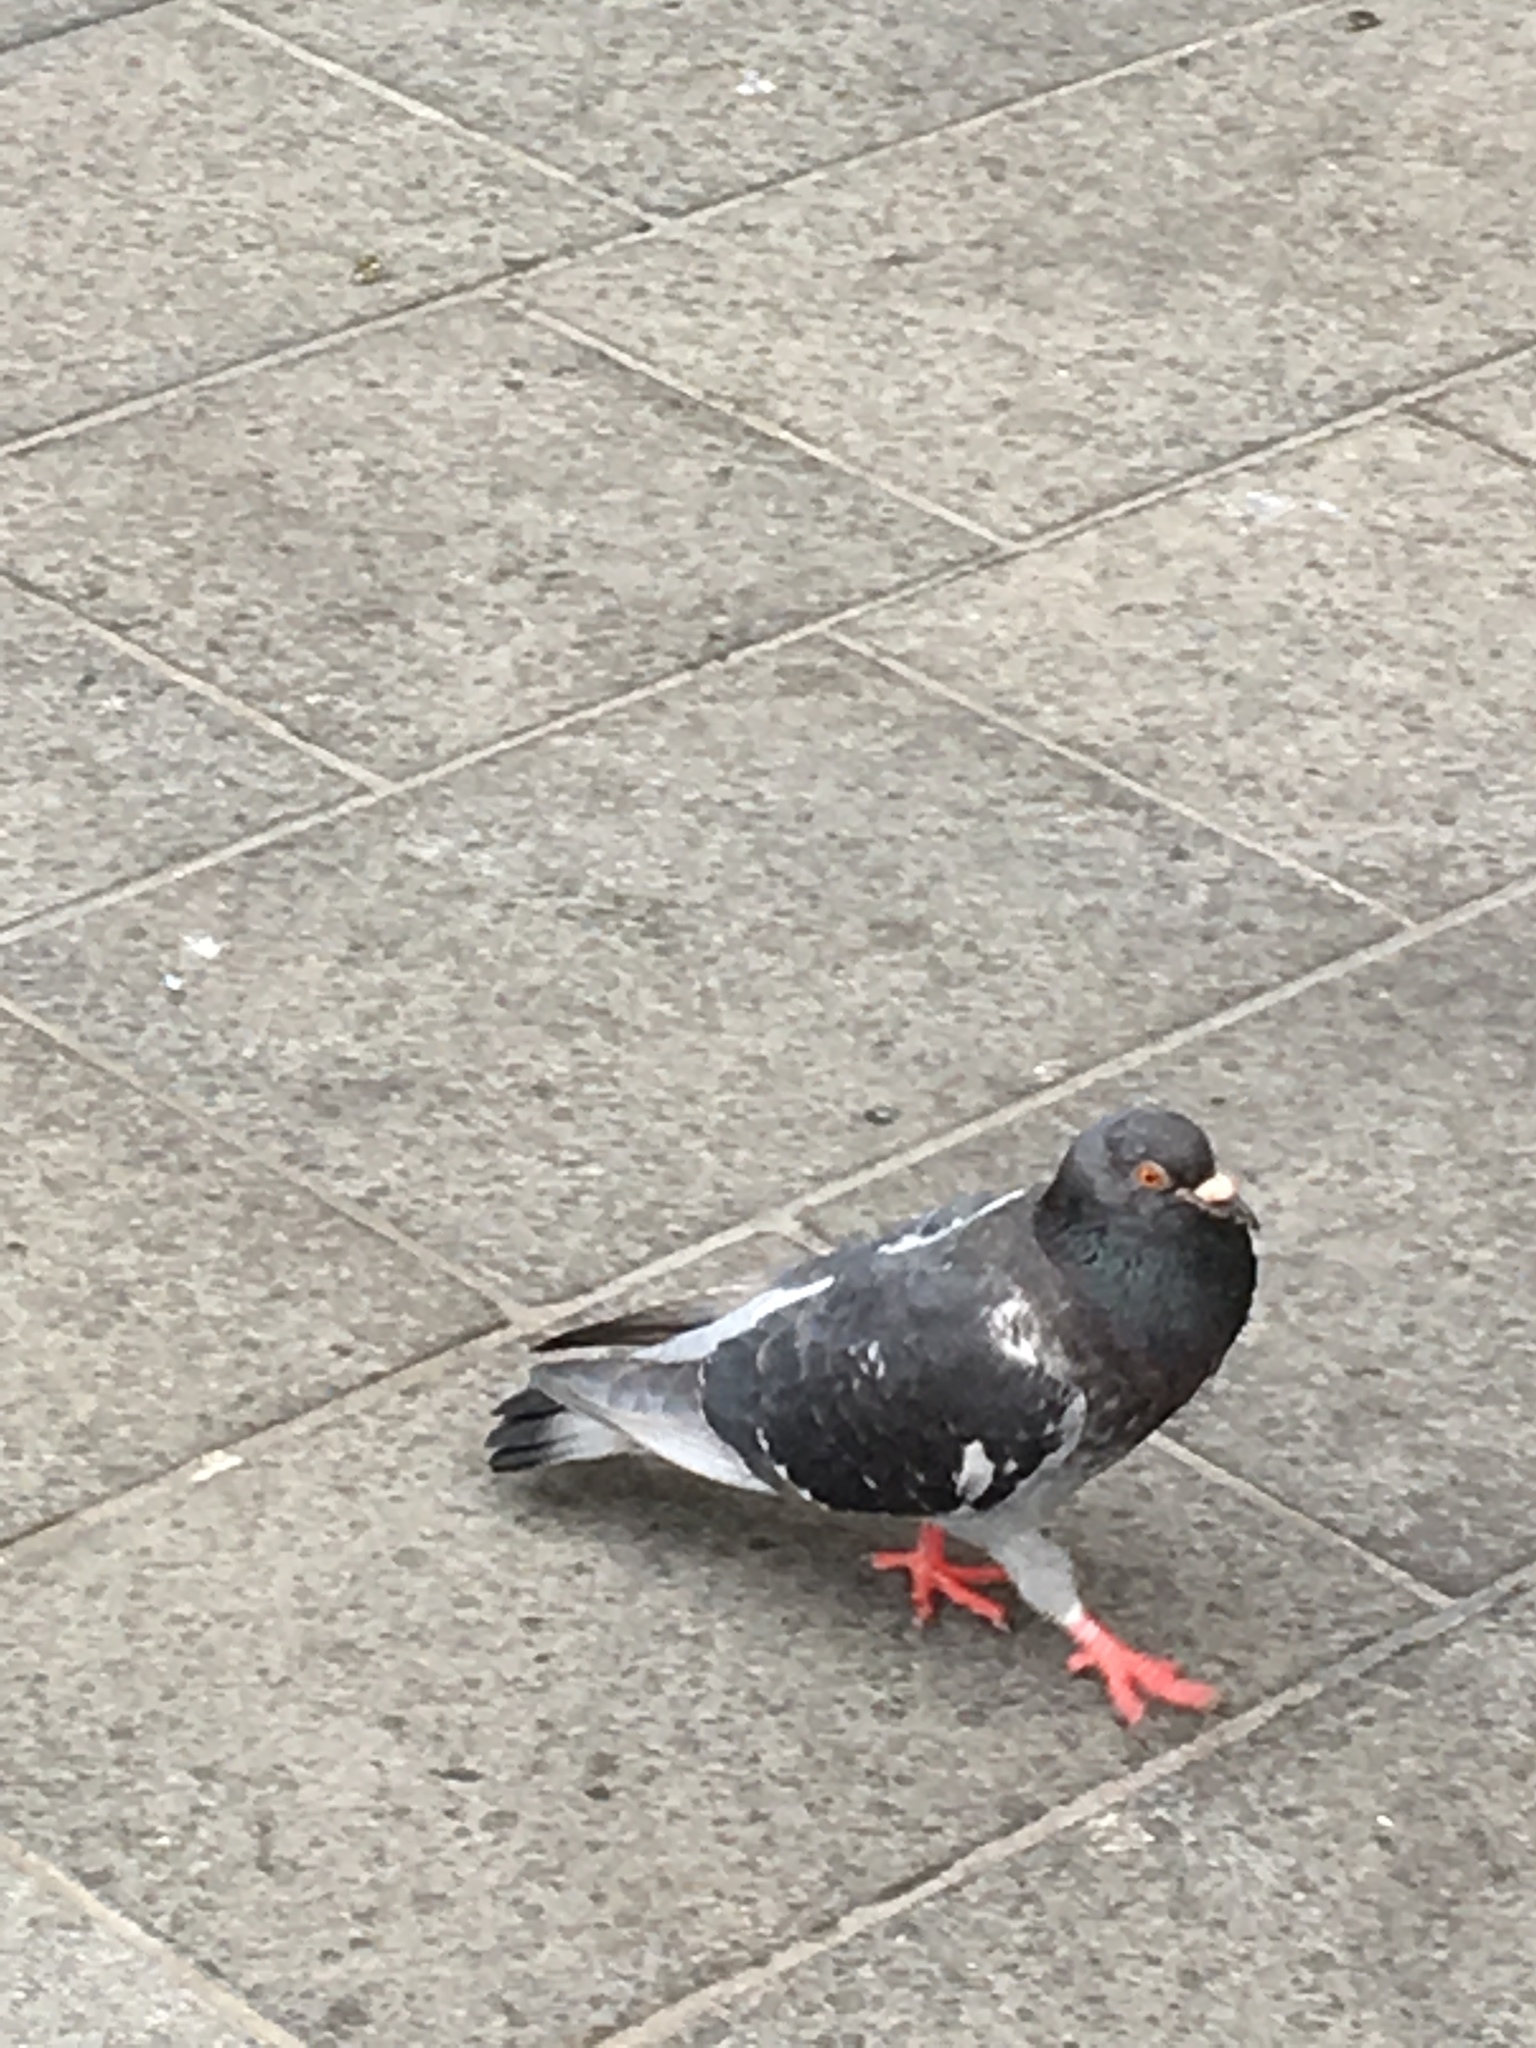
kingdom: Animalia
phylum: Chordata
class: Aves
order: Columbiformes
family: Columbidae
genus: Columba
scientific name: Columba livia
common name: Rock pigeon
